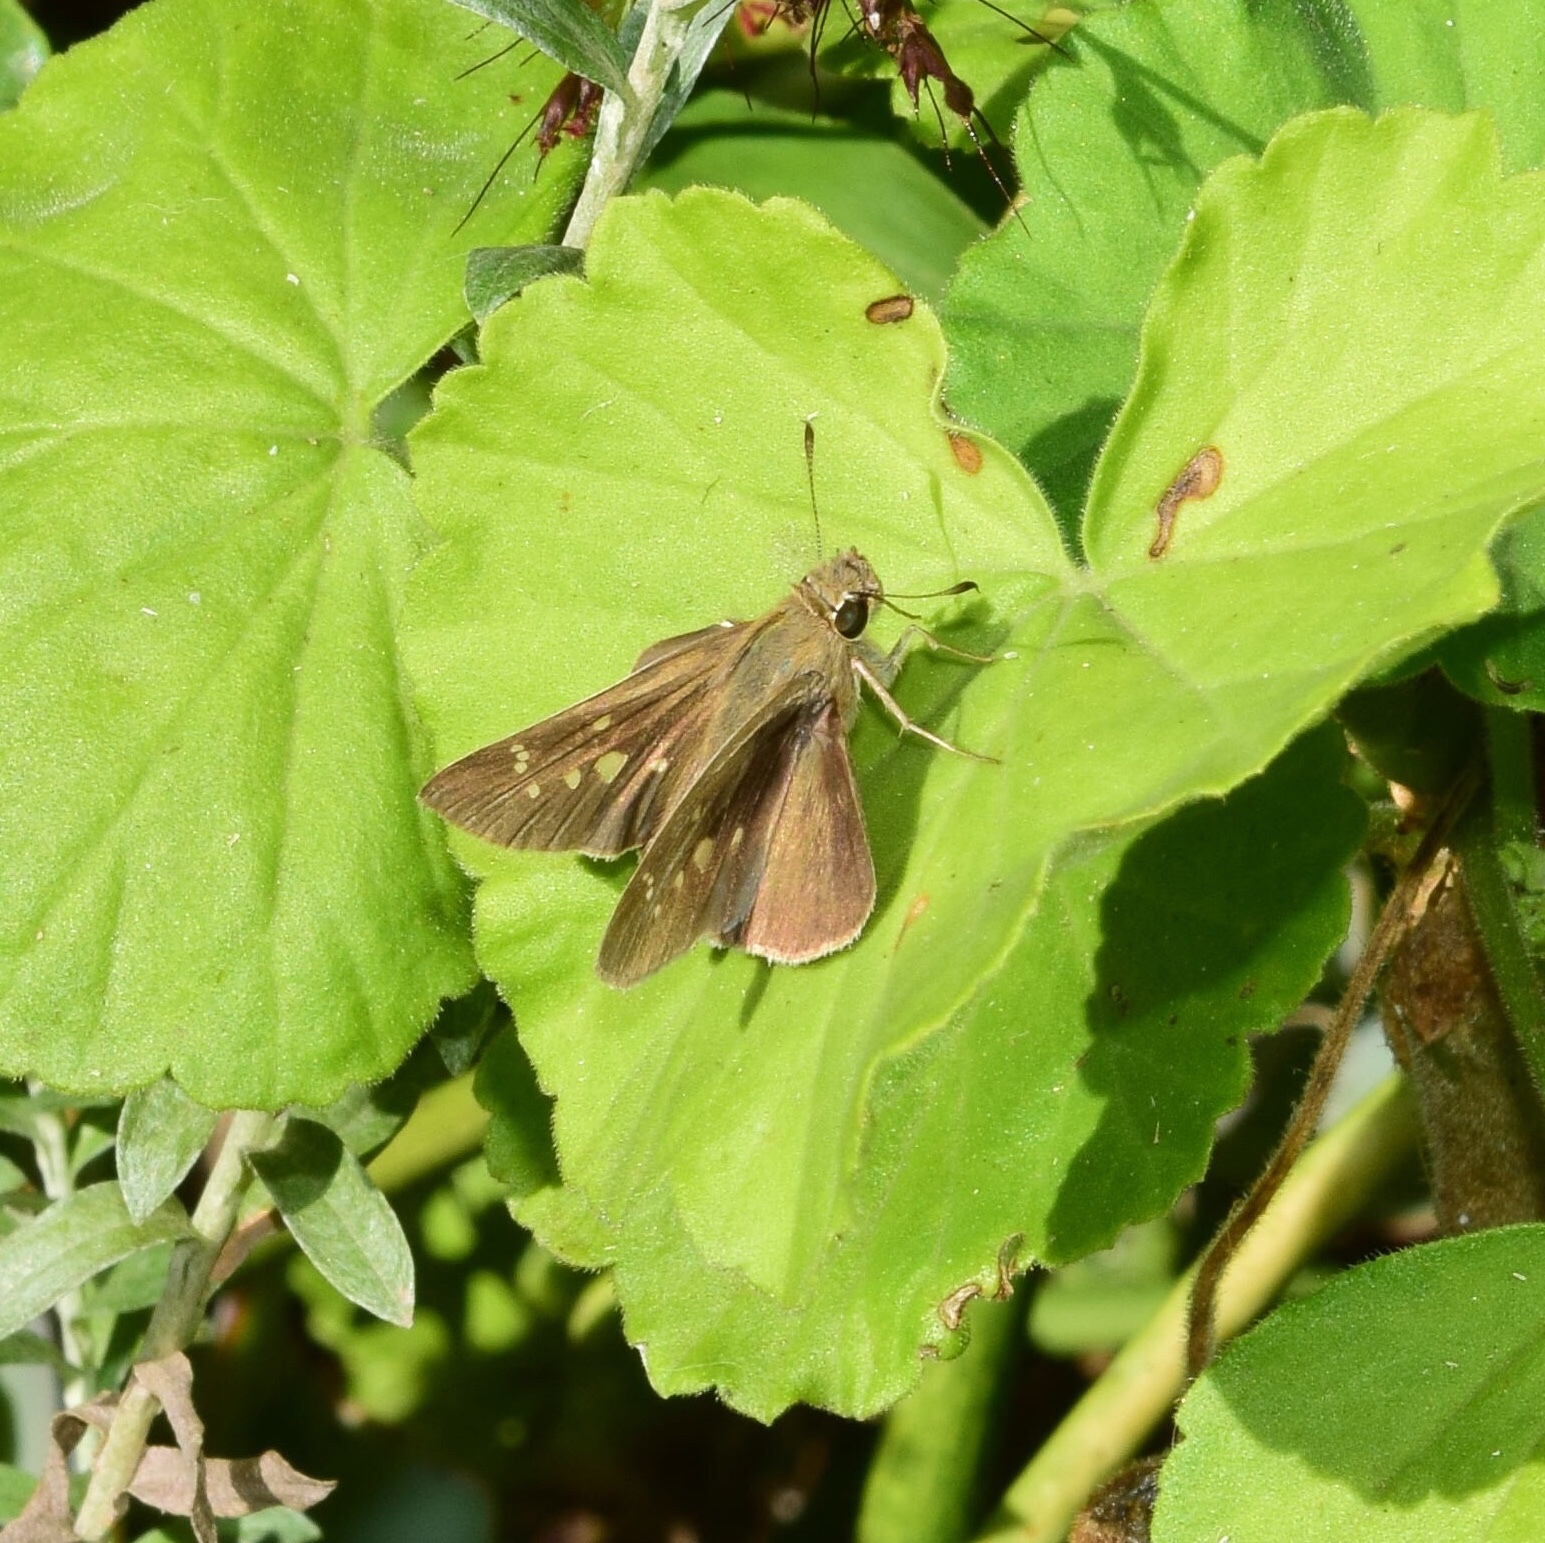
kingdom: Animalia
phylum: Arthropoda
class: Insecta
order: Lepidoptera
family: Hesperiidae
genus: Borbo
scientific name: Borbo detecta
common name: Rusty swift
